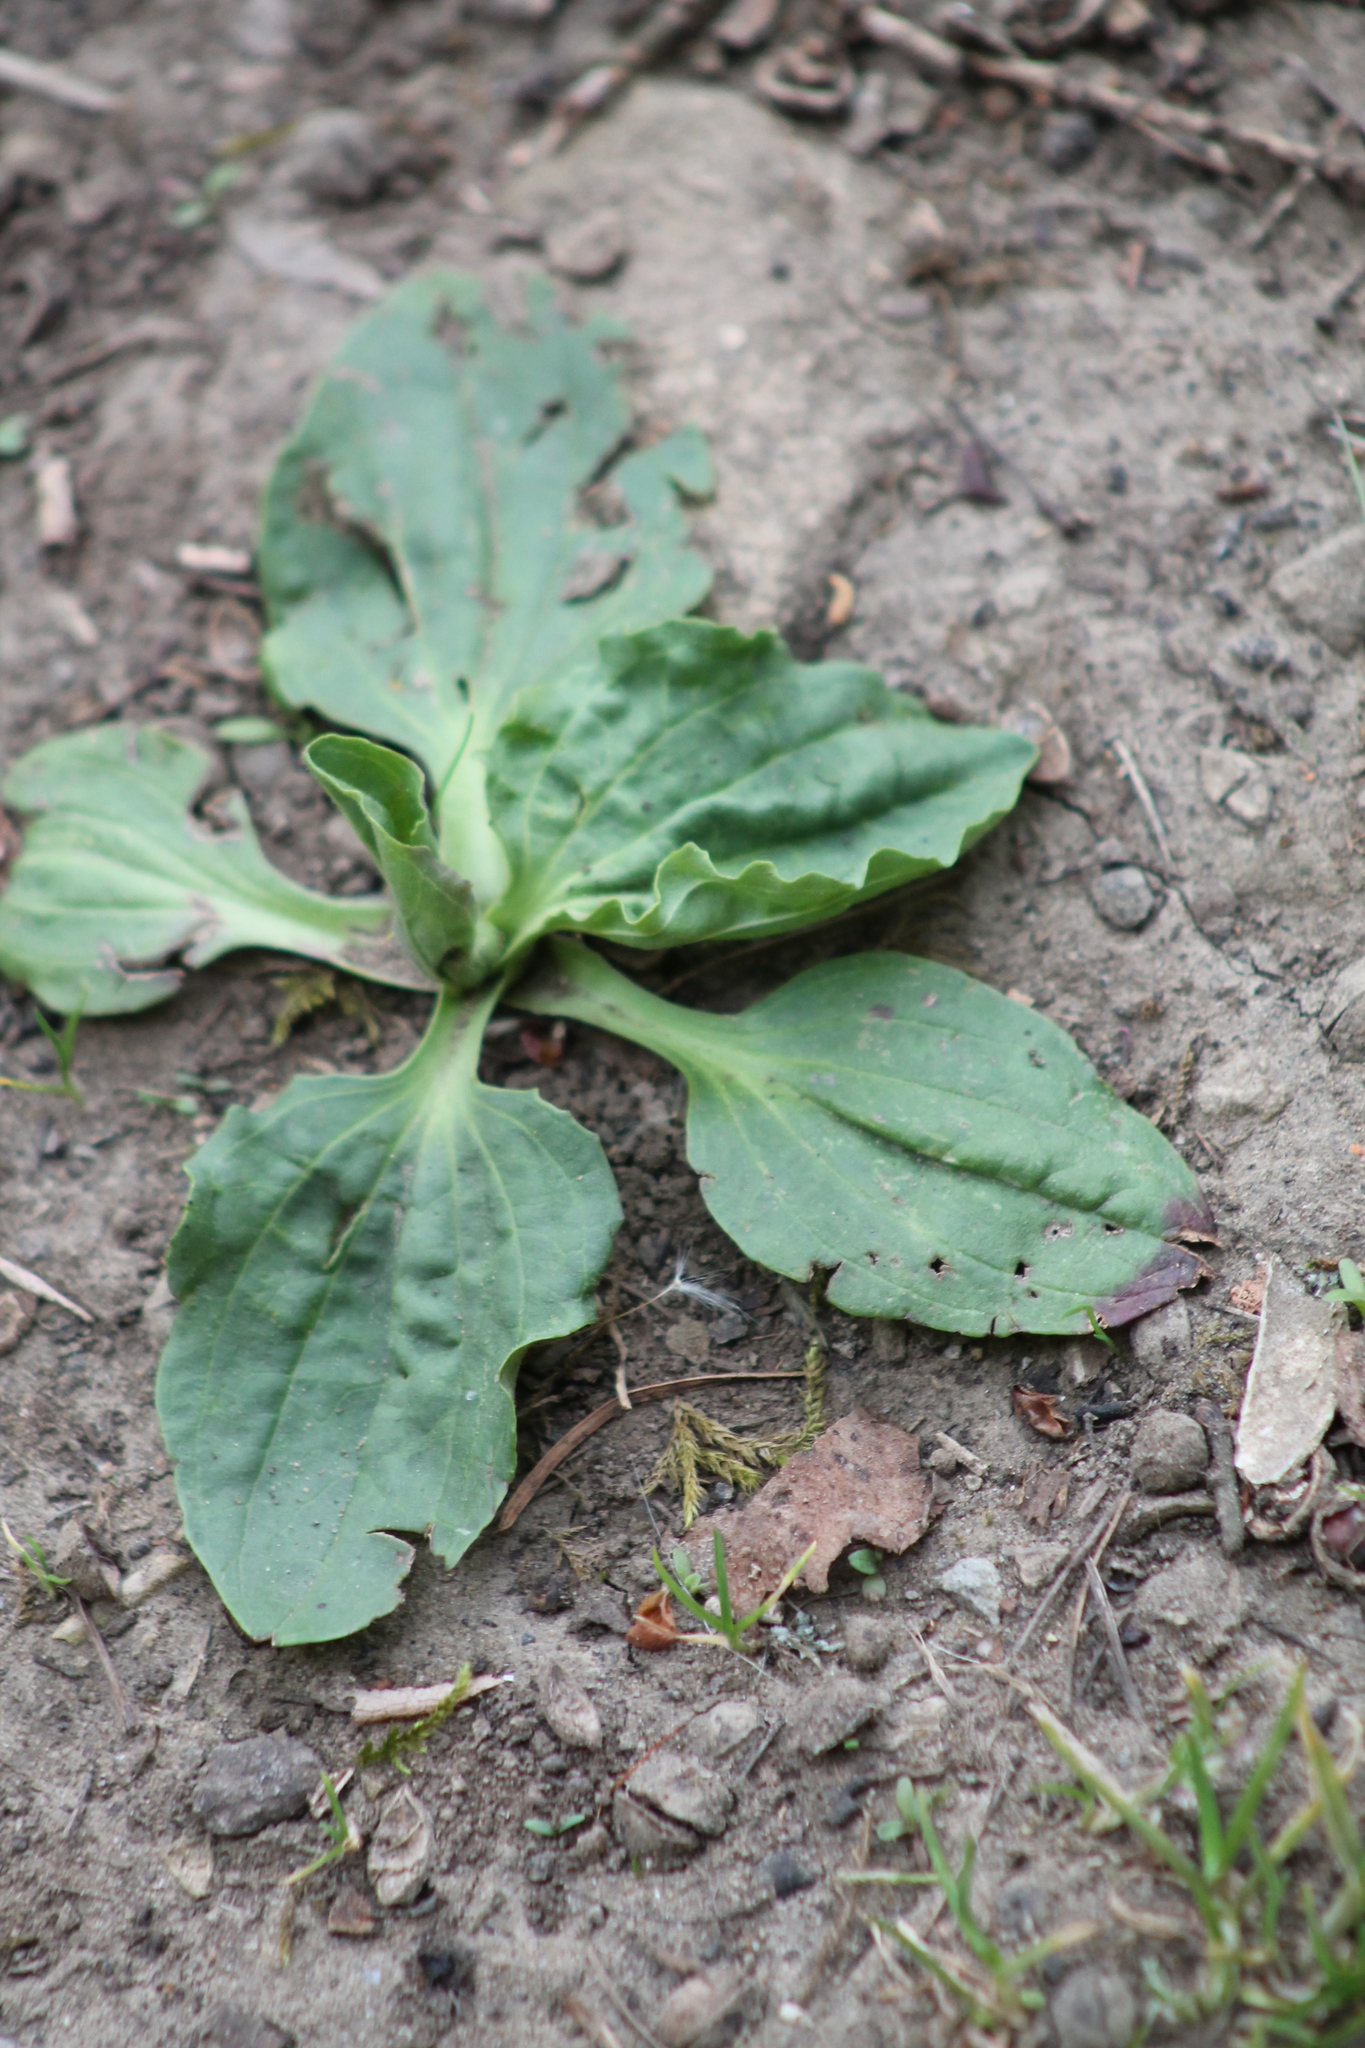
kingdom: Plantae
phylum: Tracheophyta
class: Magnoliopsida
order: Lamiales
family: Plantaginaceae
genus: Plantago
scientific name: Plantago major
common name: Common plantain
